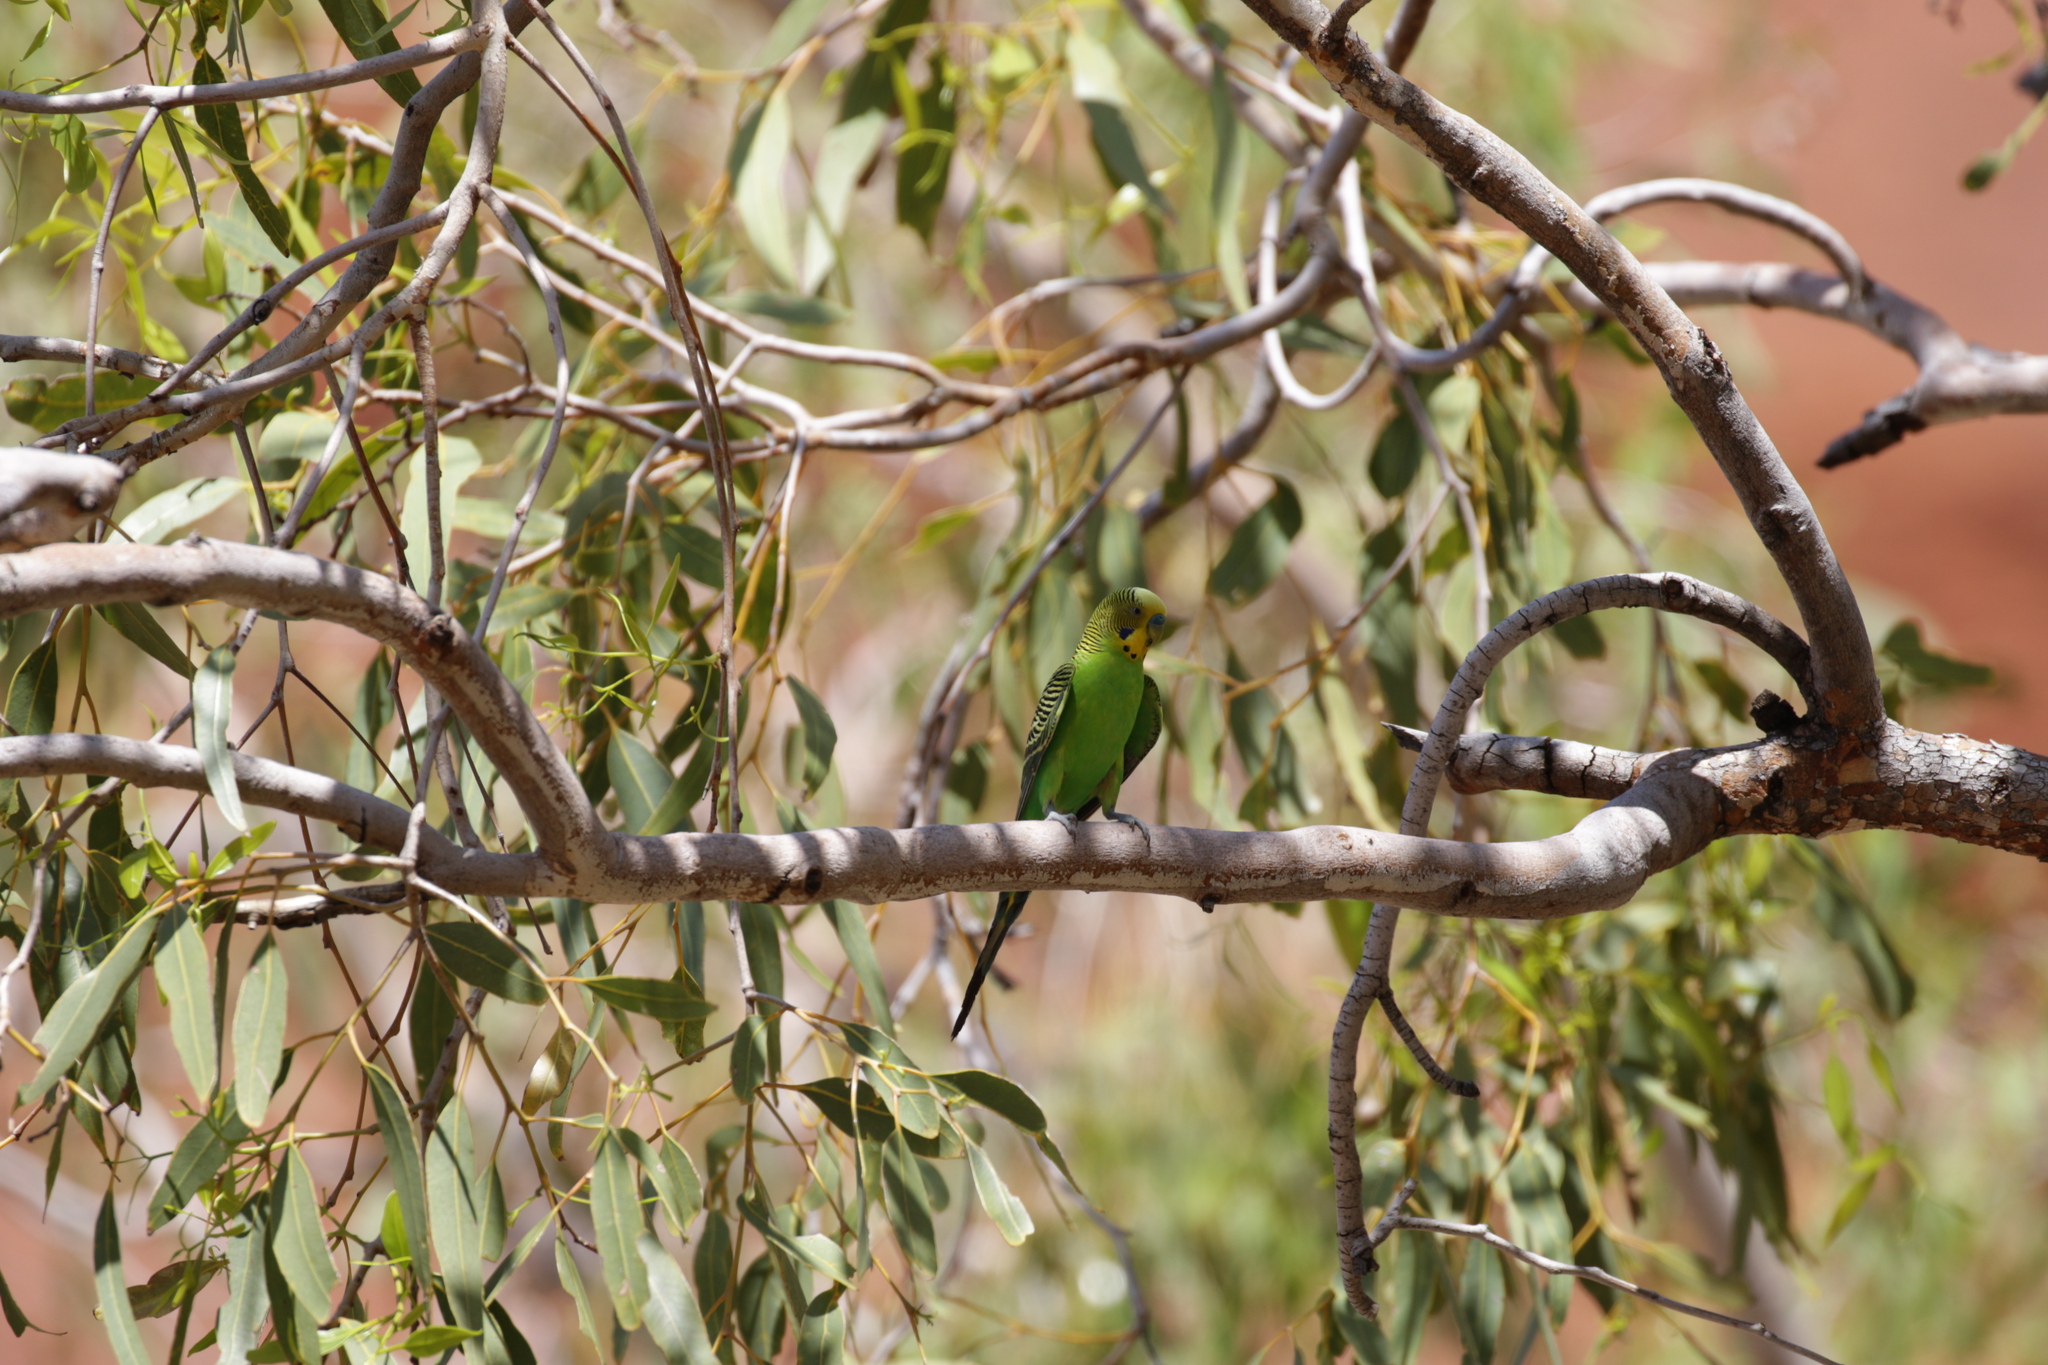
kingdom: Animalia
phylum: Chordata
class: Aves
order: Psittaciformes
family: Psittacidae
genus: Melopsittacus
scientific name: Melopsittacus undulatus
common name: Budgerigar
